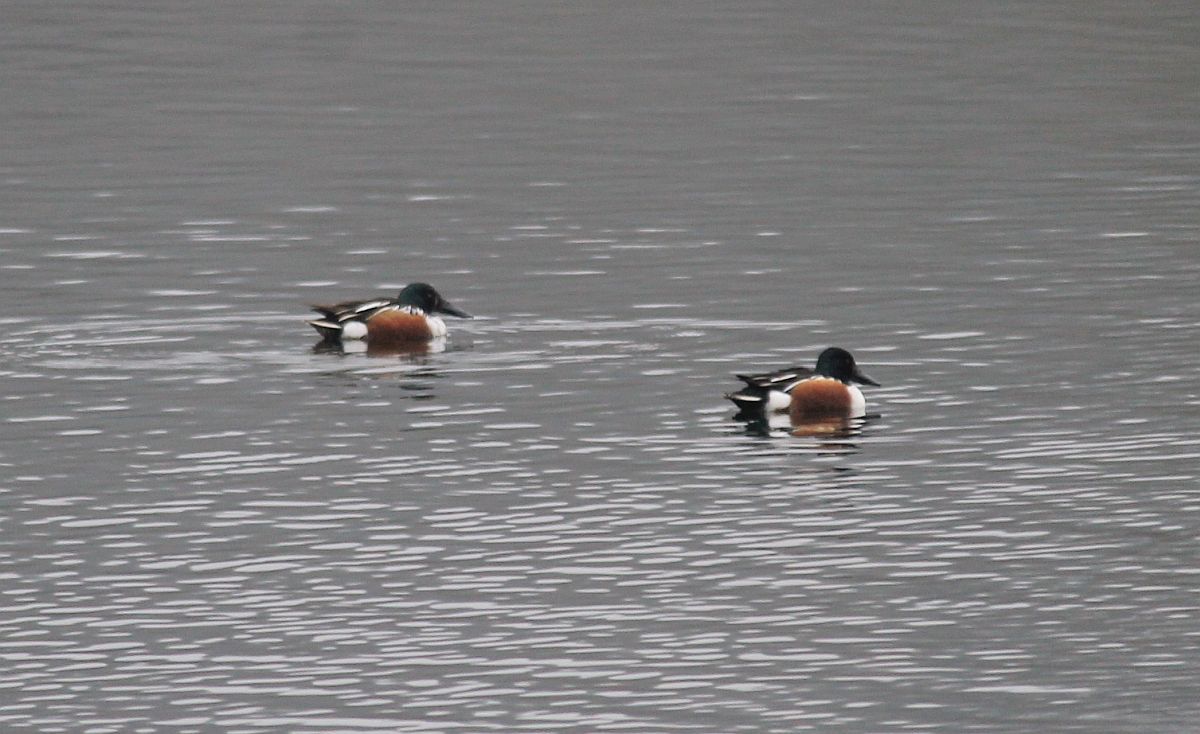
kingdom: Animalia
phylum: Chordata
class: Aves
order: Anseriformes
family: Anatidae
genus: Spatula
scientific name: Spatula clypeata
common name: Northern shoveler
